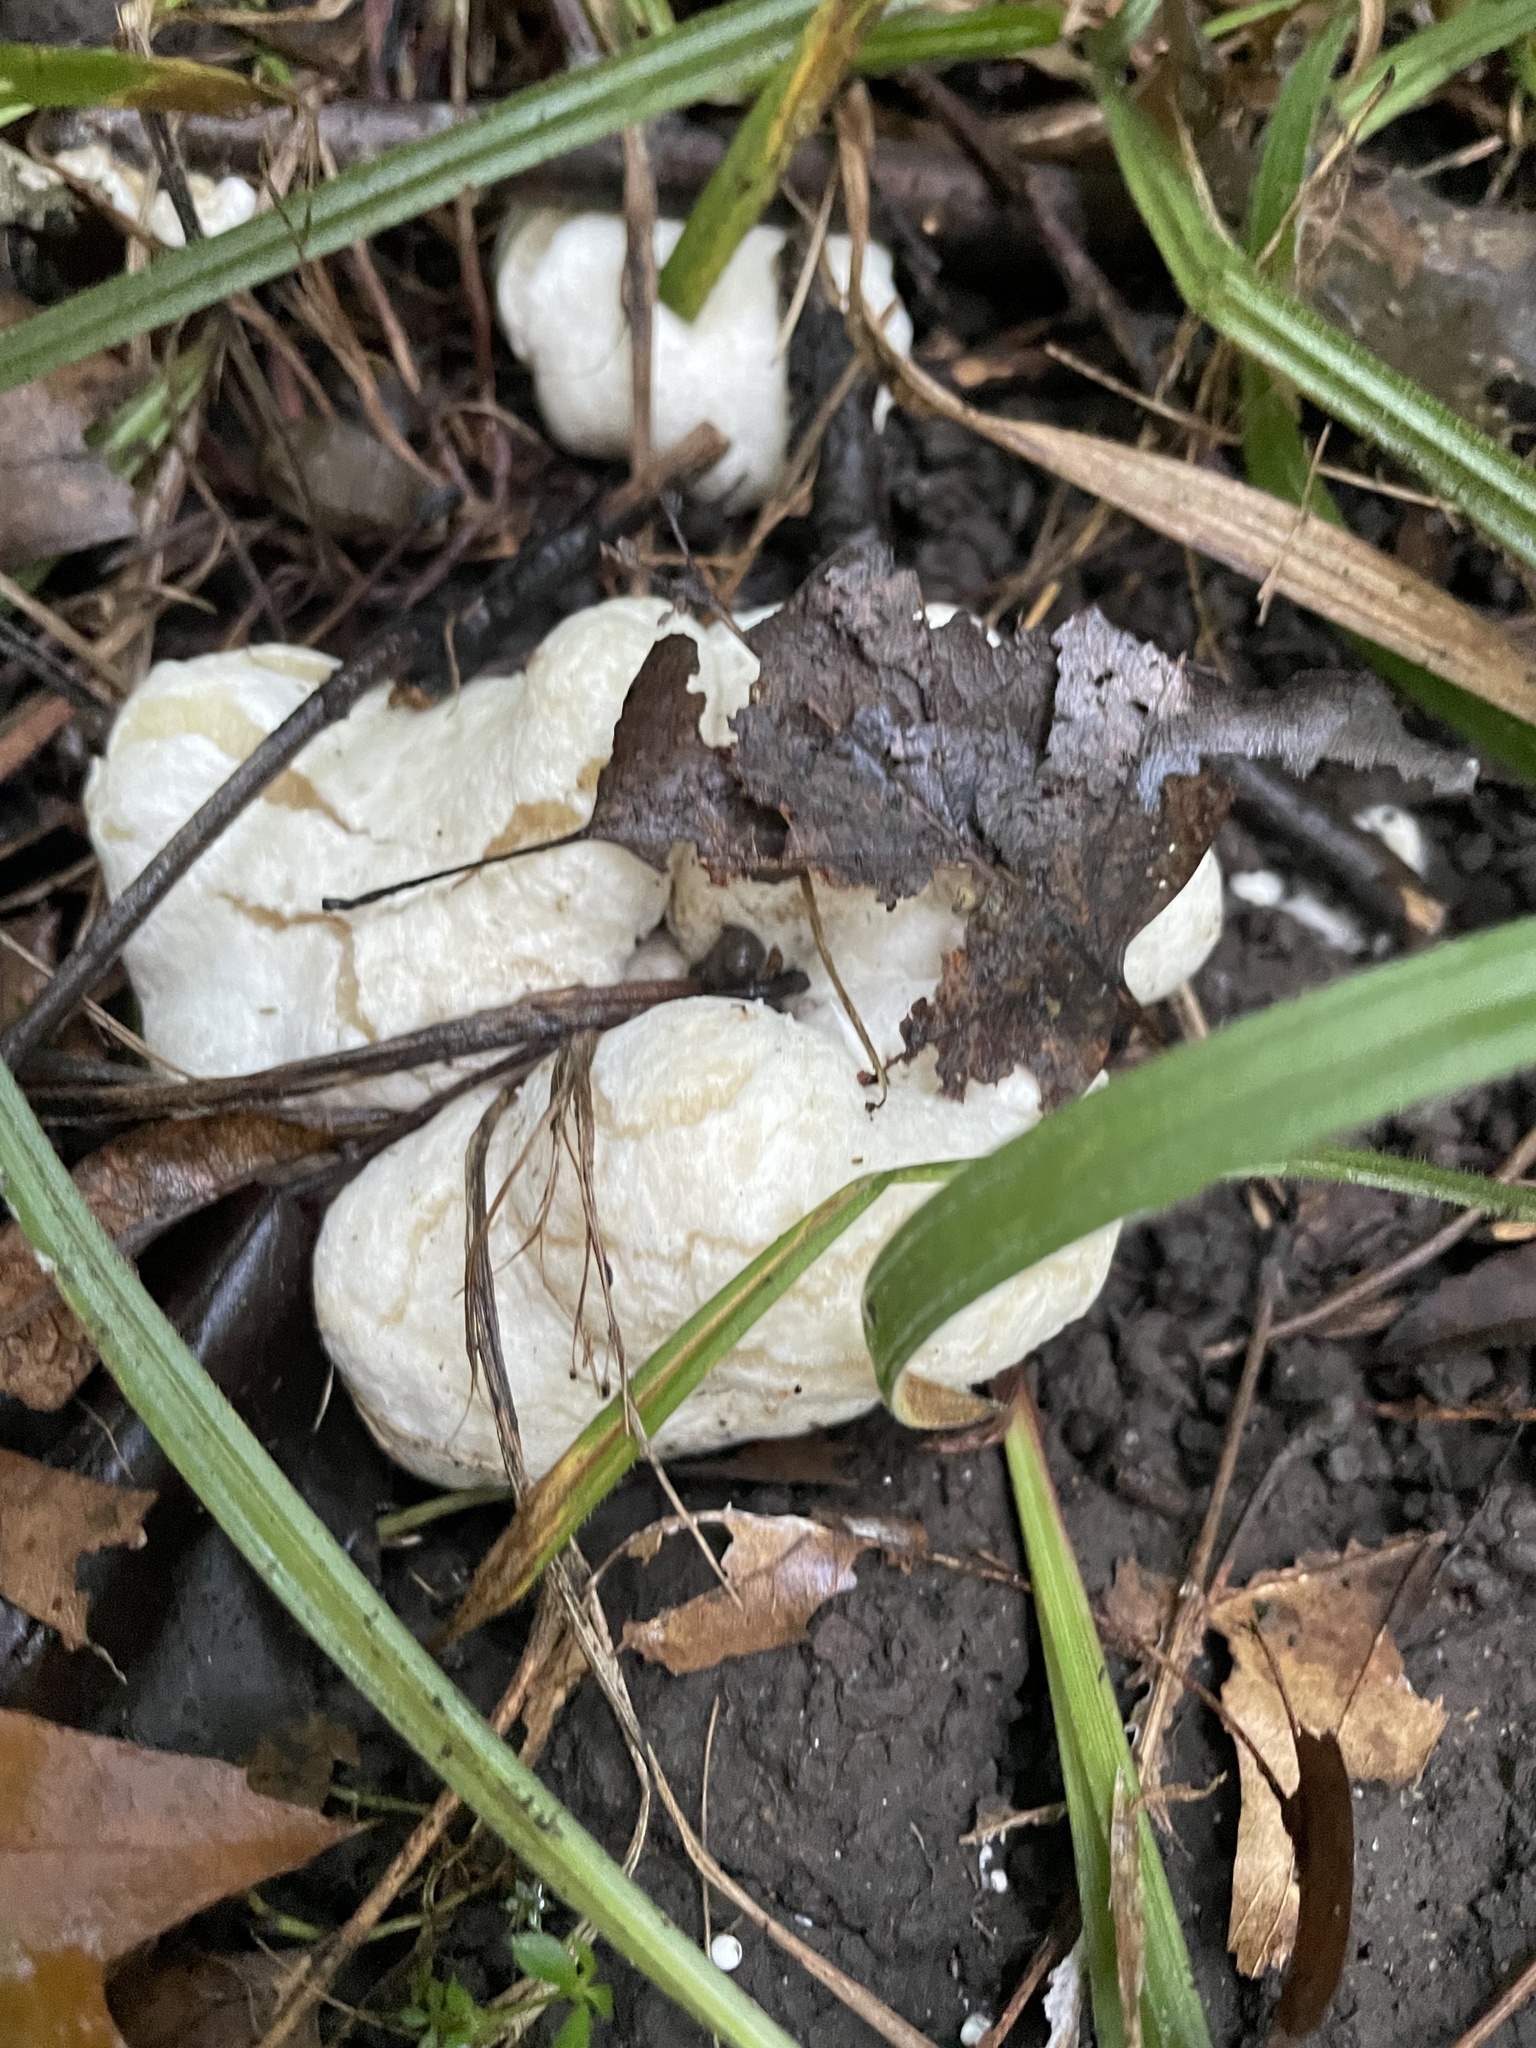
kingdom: Fungi
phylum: Basidiomycota
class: Agaricomycetes
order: Agaricales
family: Entolomataceae
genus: Entoloma
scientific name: Entoloma abortivum
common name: Aborted entoloma
